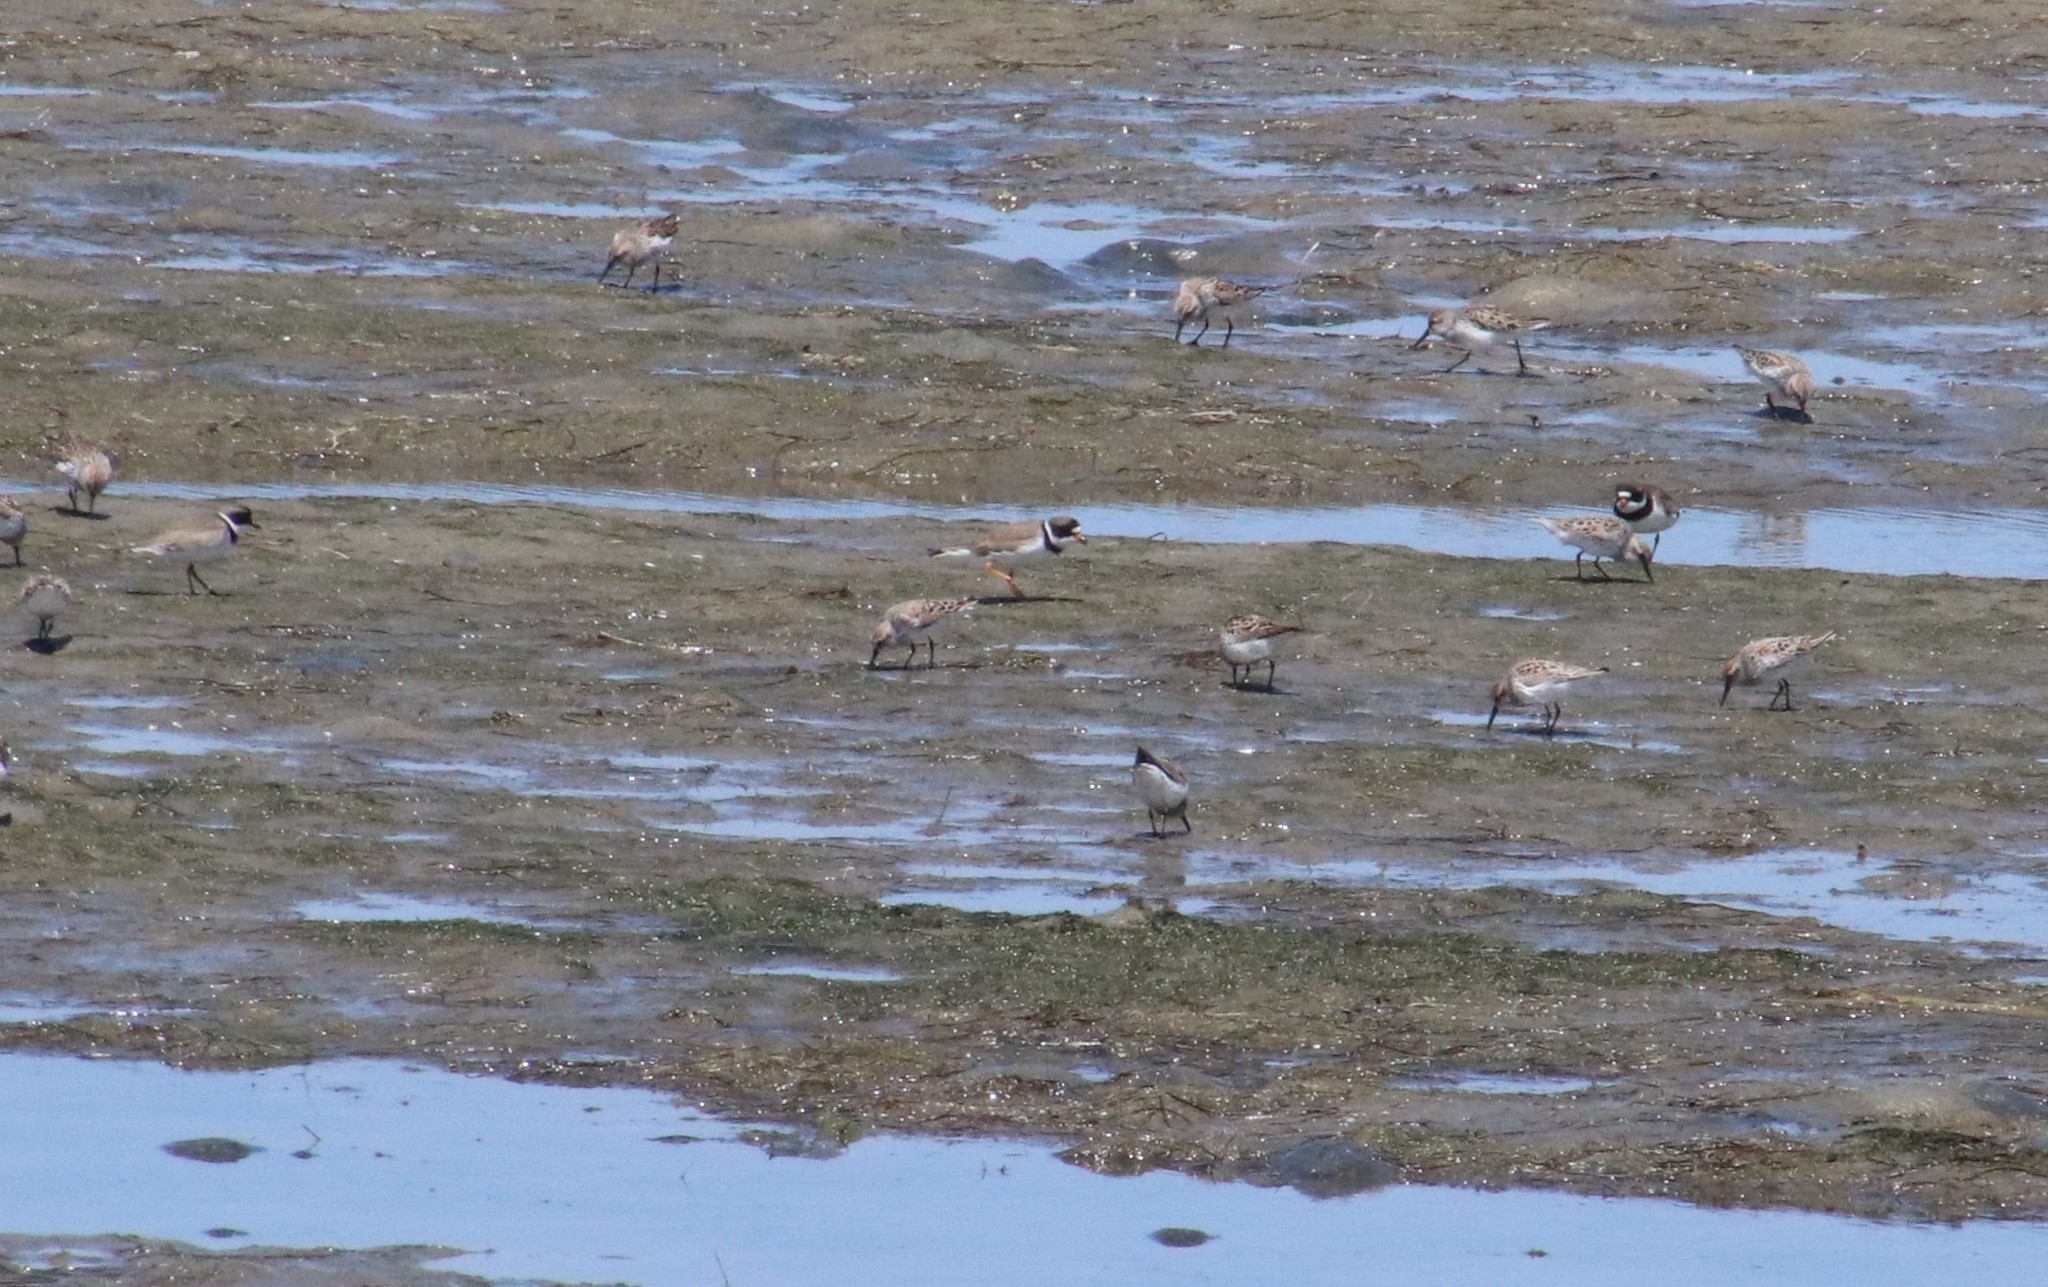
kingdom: Animalia
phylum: Chordata
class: Aves
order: Charadriiformes
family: Charadriidae
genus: Charadrius
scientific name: Charadrius semipalmatus
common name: Semipalmated plover
